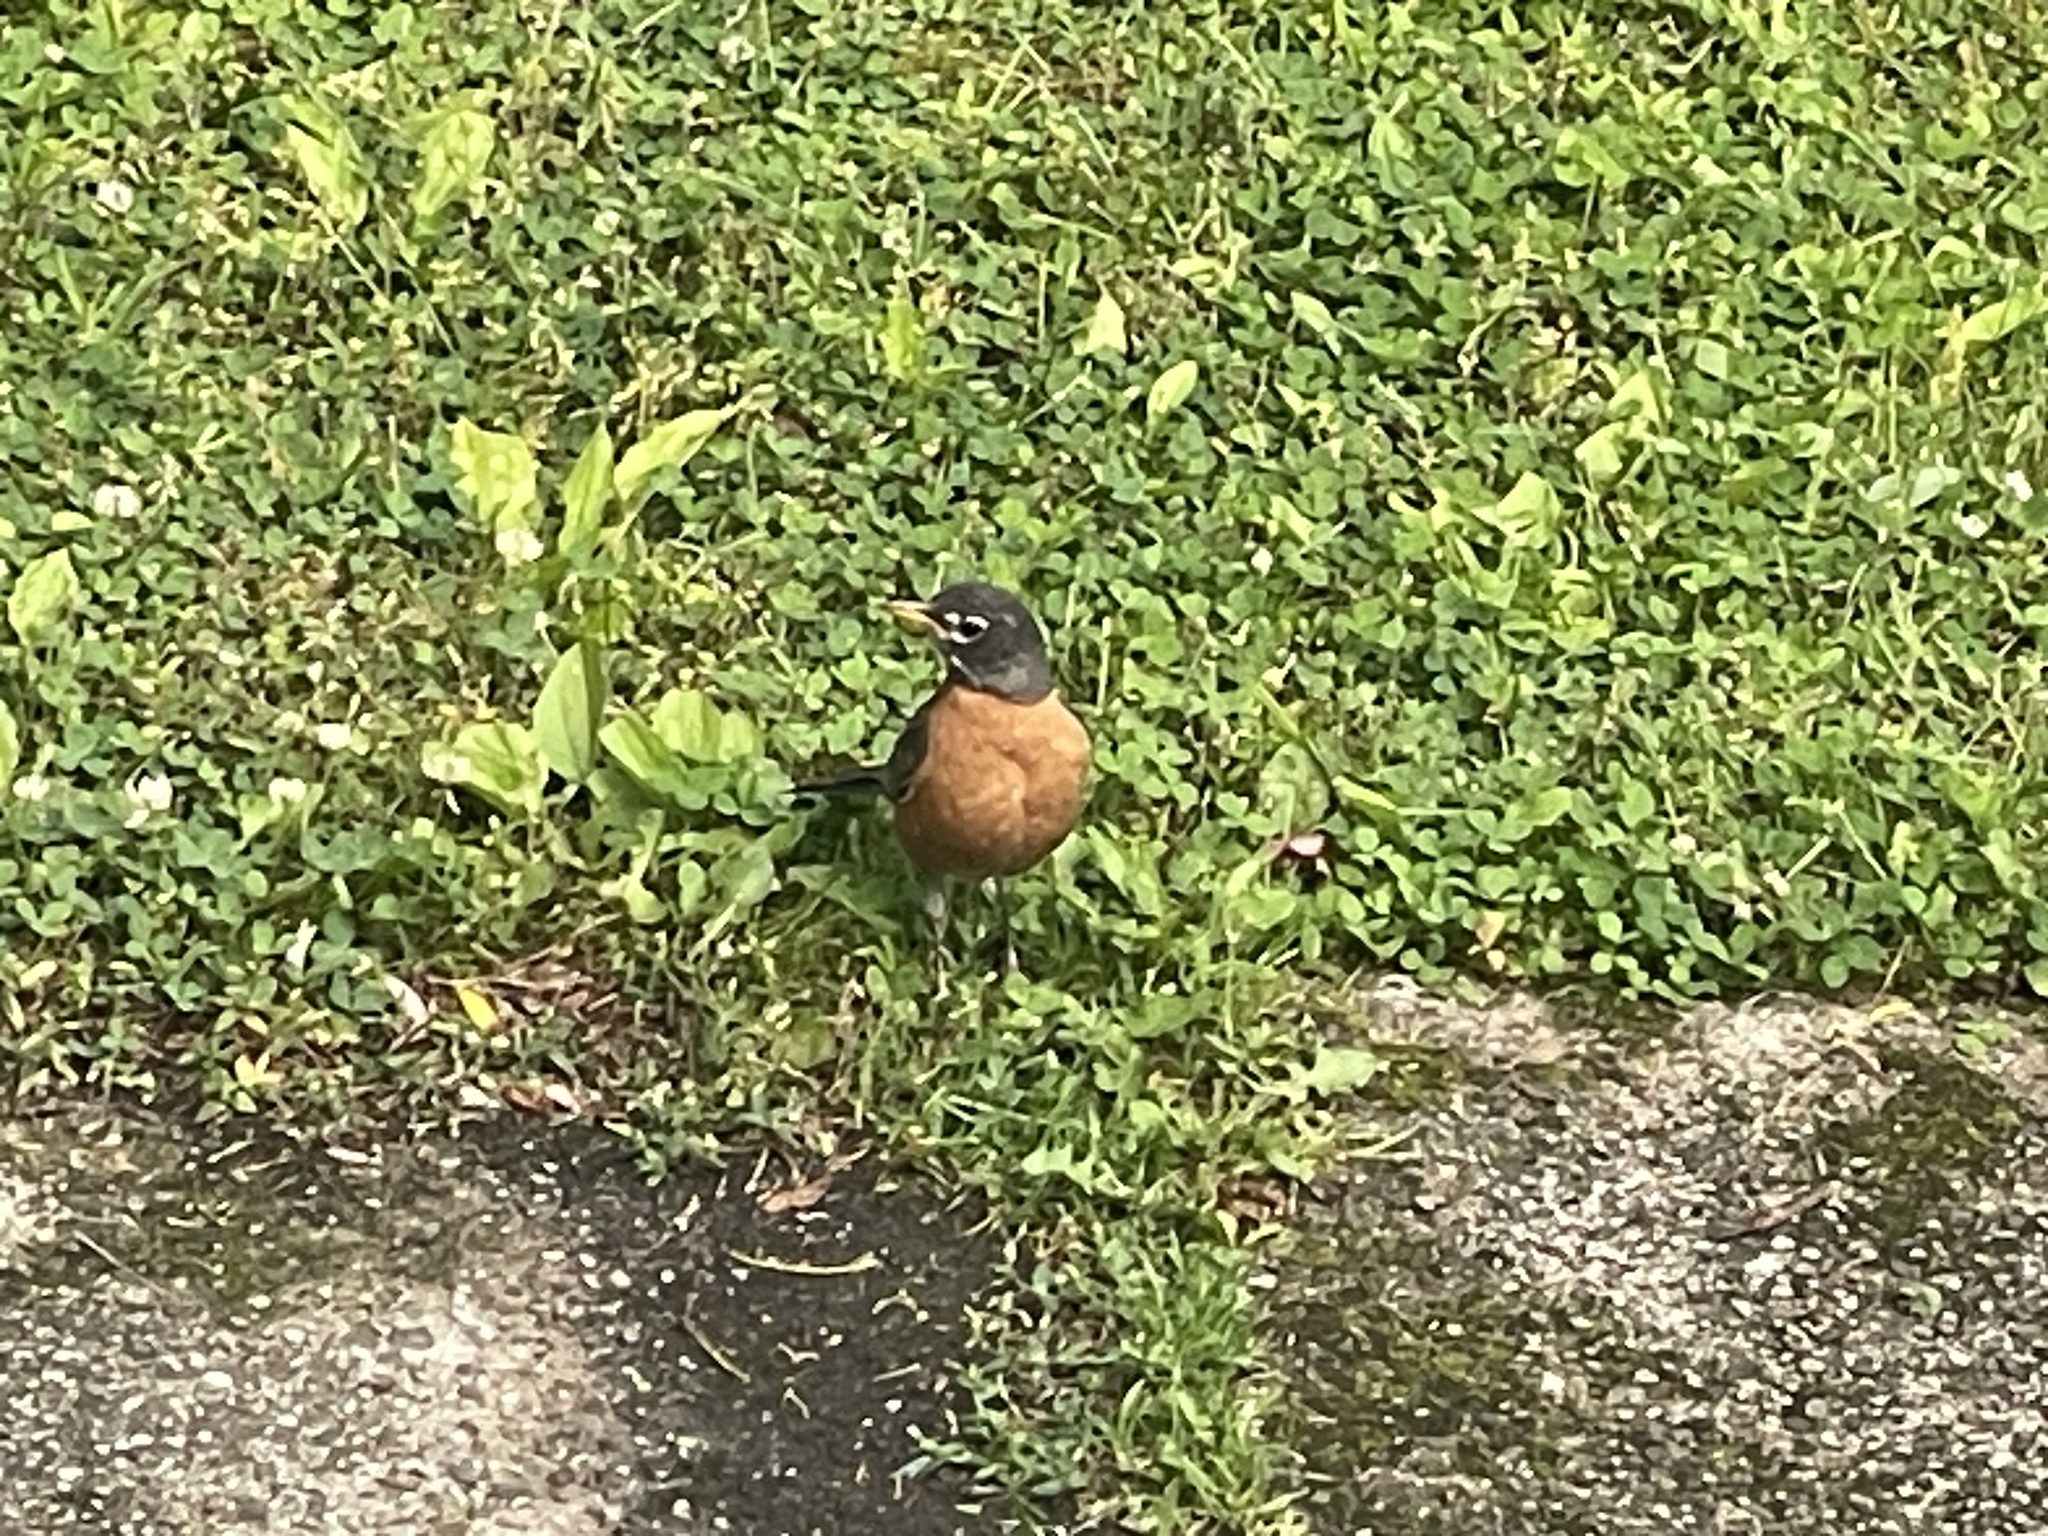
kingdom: Animalia
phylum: Chordata
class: Aves
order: Passeriformes
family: Turdidae
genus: Turdus
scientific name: Turdus migratorius
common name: American robin
